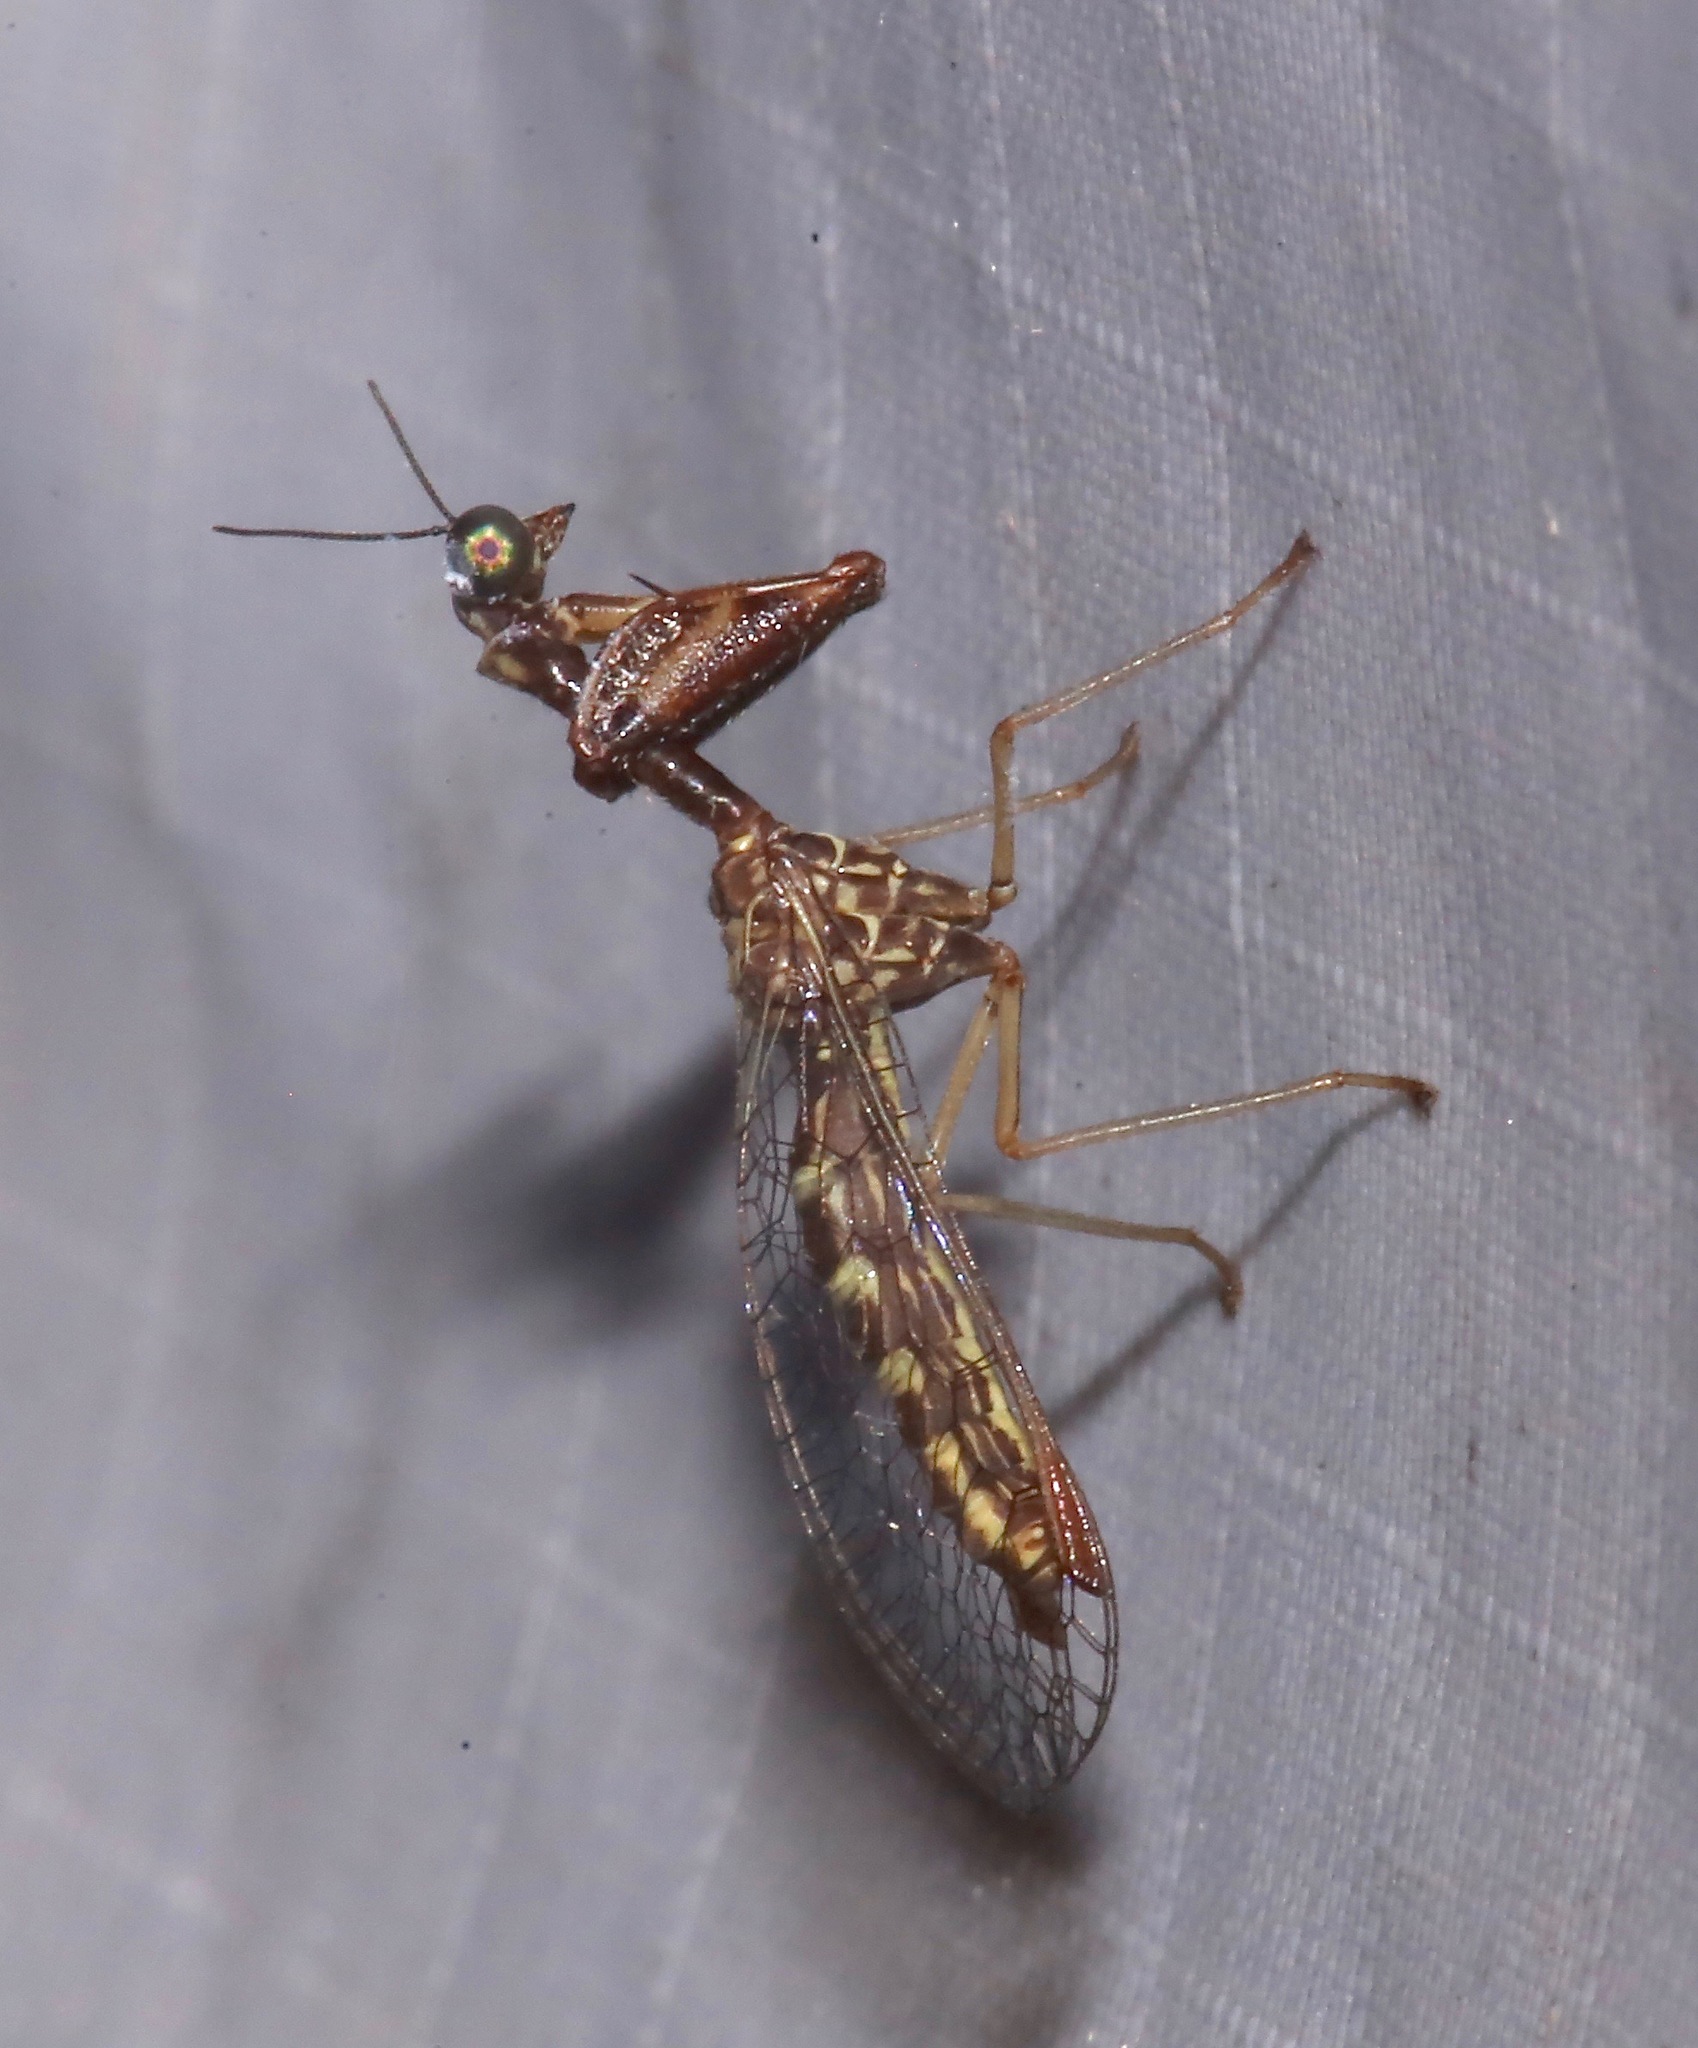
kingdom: Animalia
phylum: Arthropoda
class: Insecta
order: Neuroptera
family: Mantispidae
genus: Leptomantispa
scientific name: Leptomantispa pulchella
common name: Stevens's mantidfly
